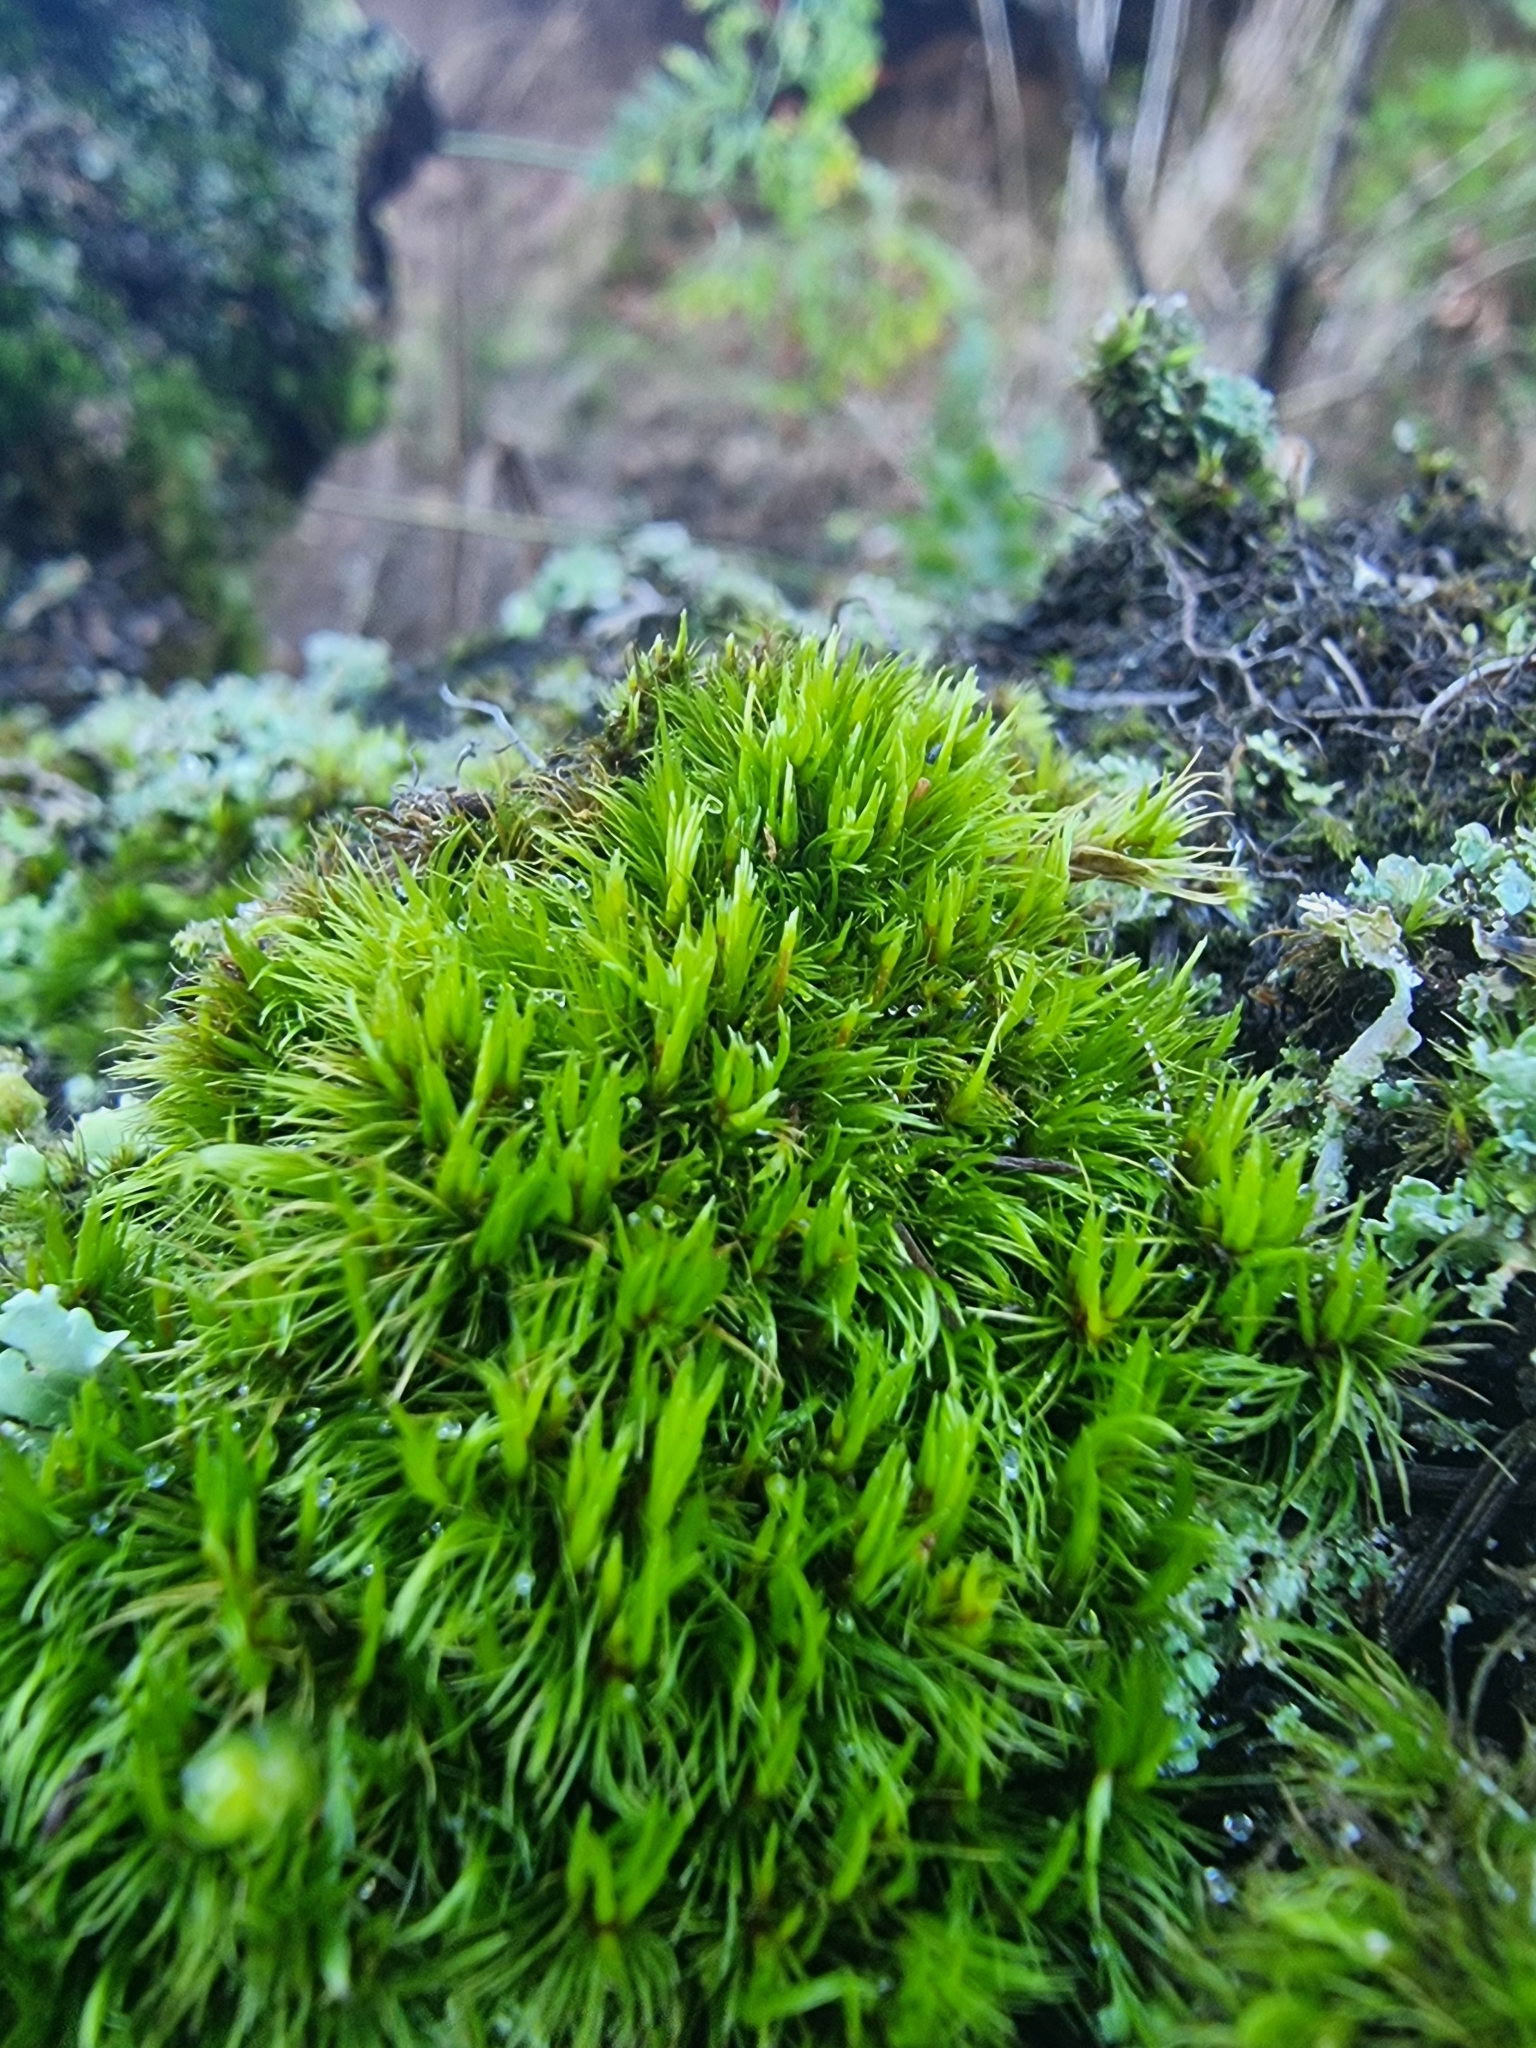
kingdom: Plantae
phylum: Bryophyta
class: Bryopsida
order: Dicranales
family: Dicranaceae
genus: Orthodicranum
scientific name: Orthodicranum flagellare
